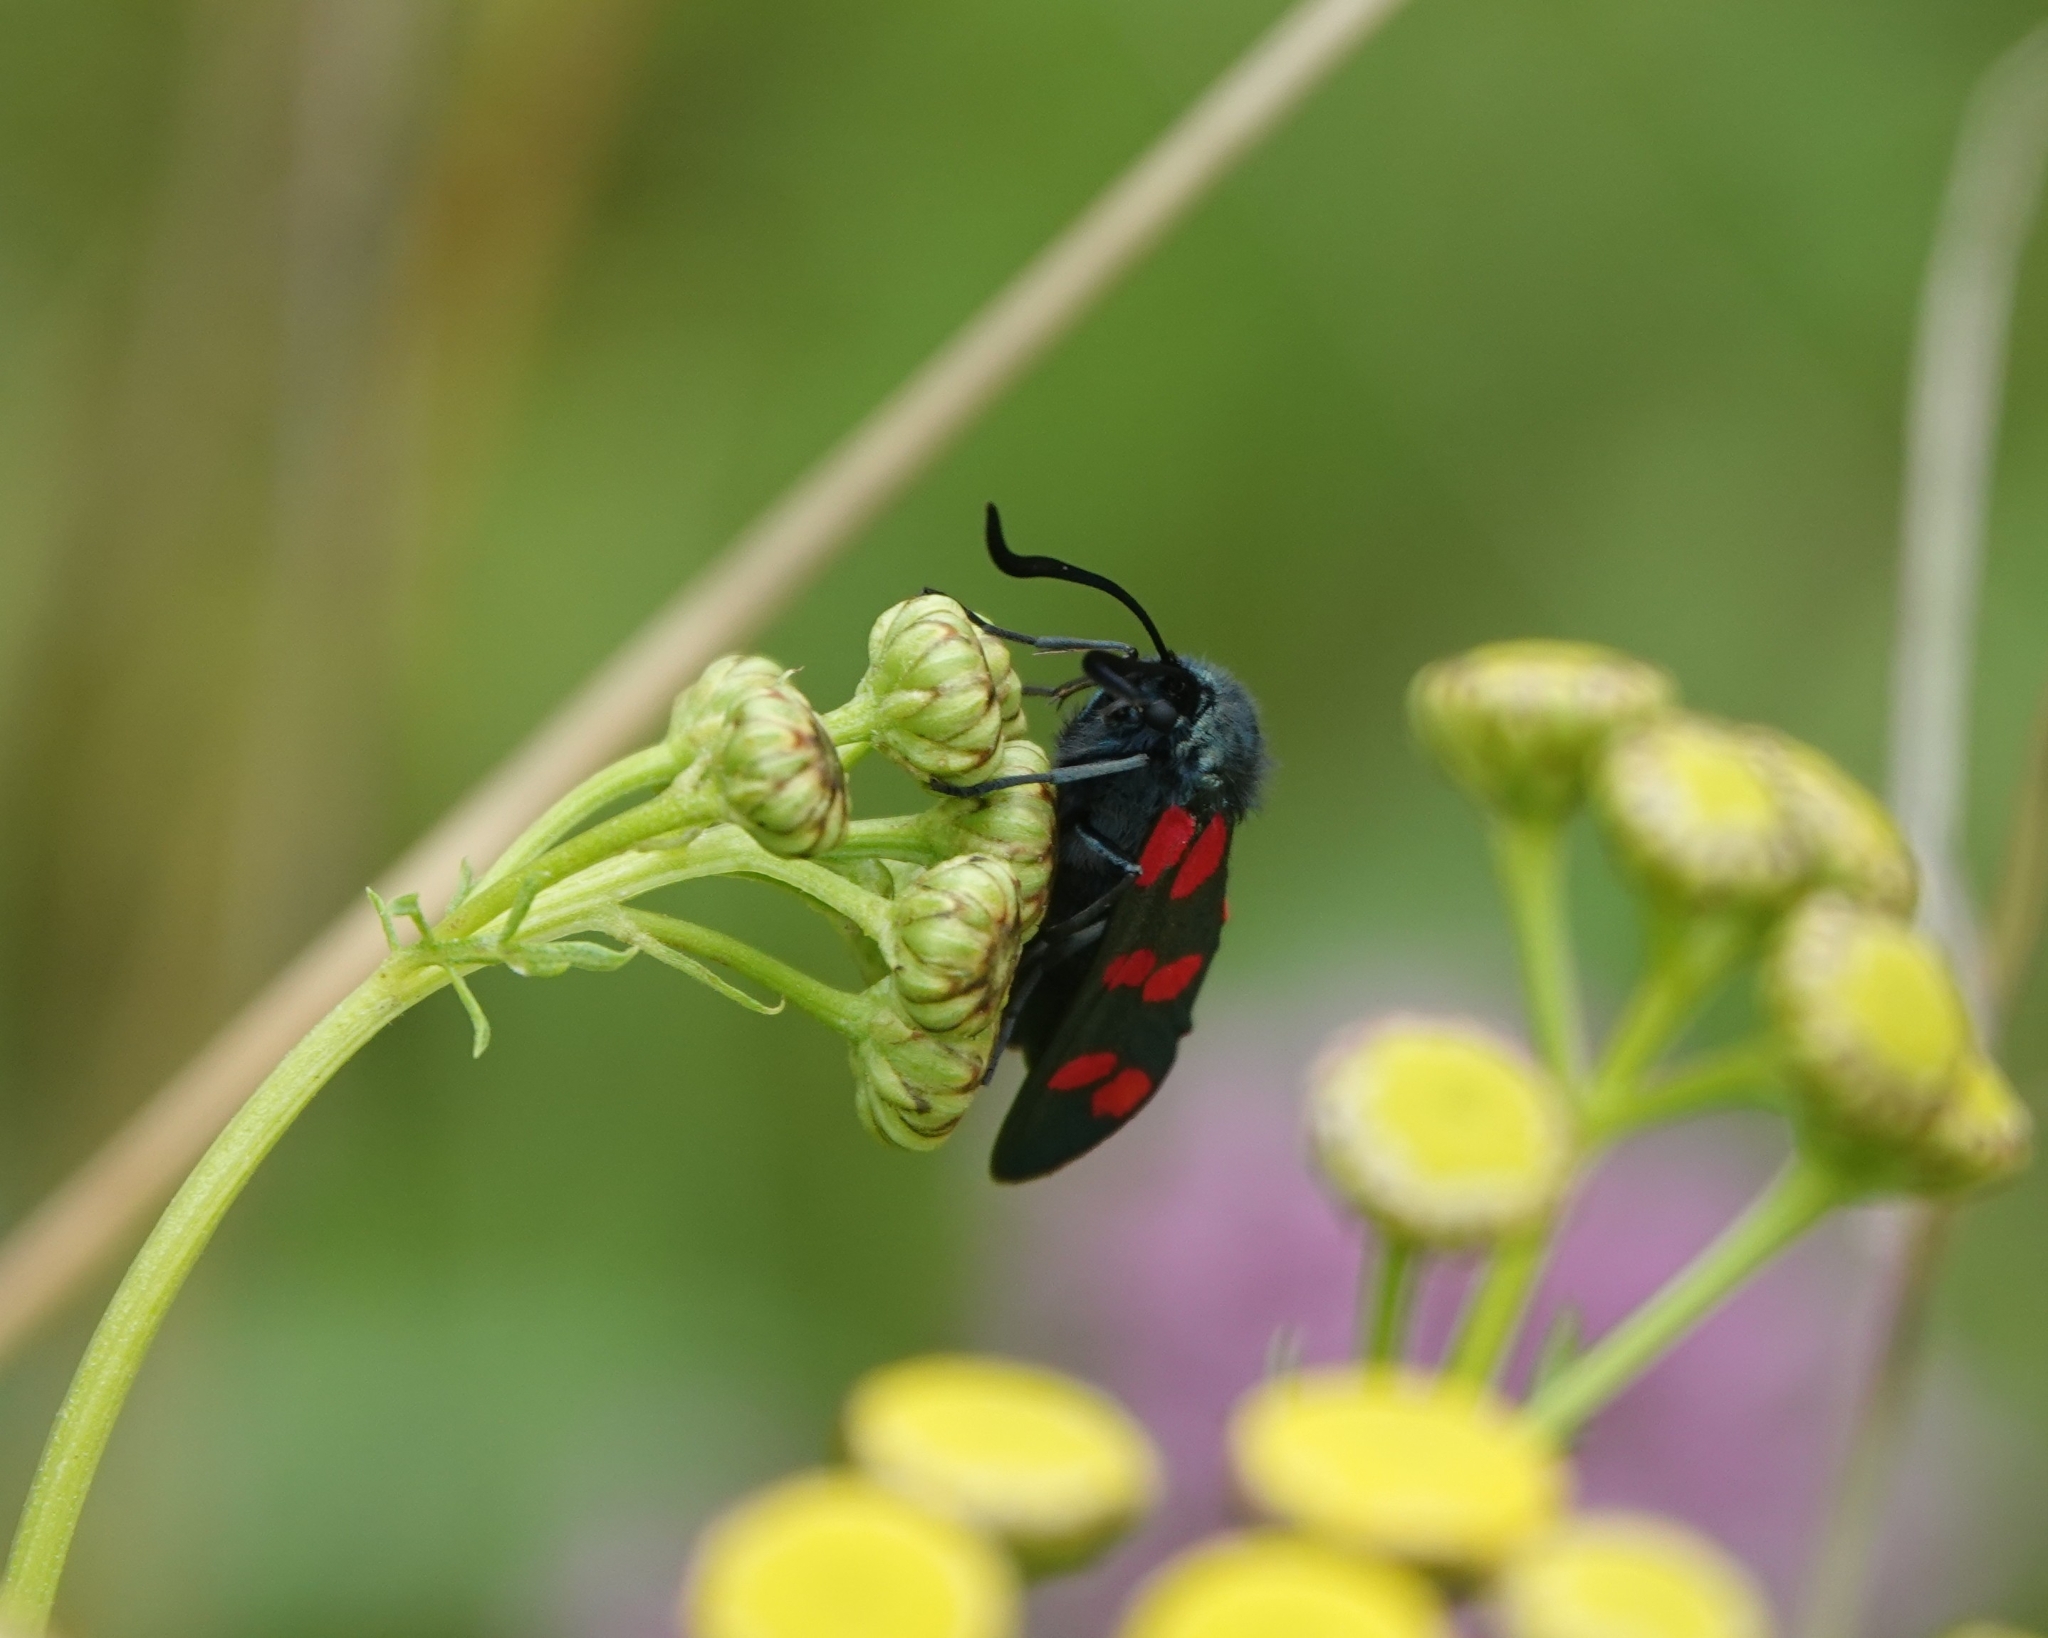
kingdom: Animalia
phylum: Arthropoda
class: Insecta
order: Lepidoptera
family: Zygaenidae
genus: Zygaena
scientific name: Zygaena filipendulae
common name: Six-spot burnet
